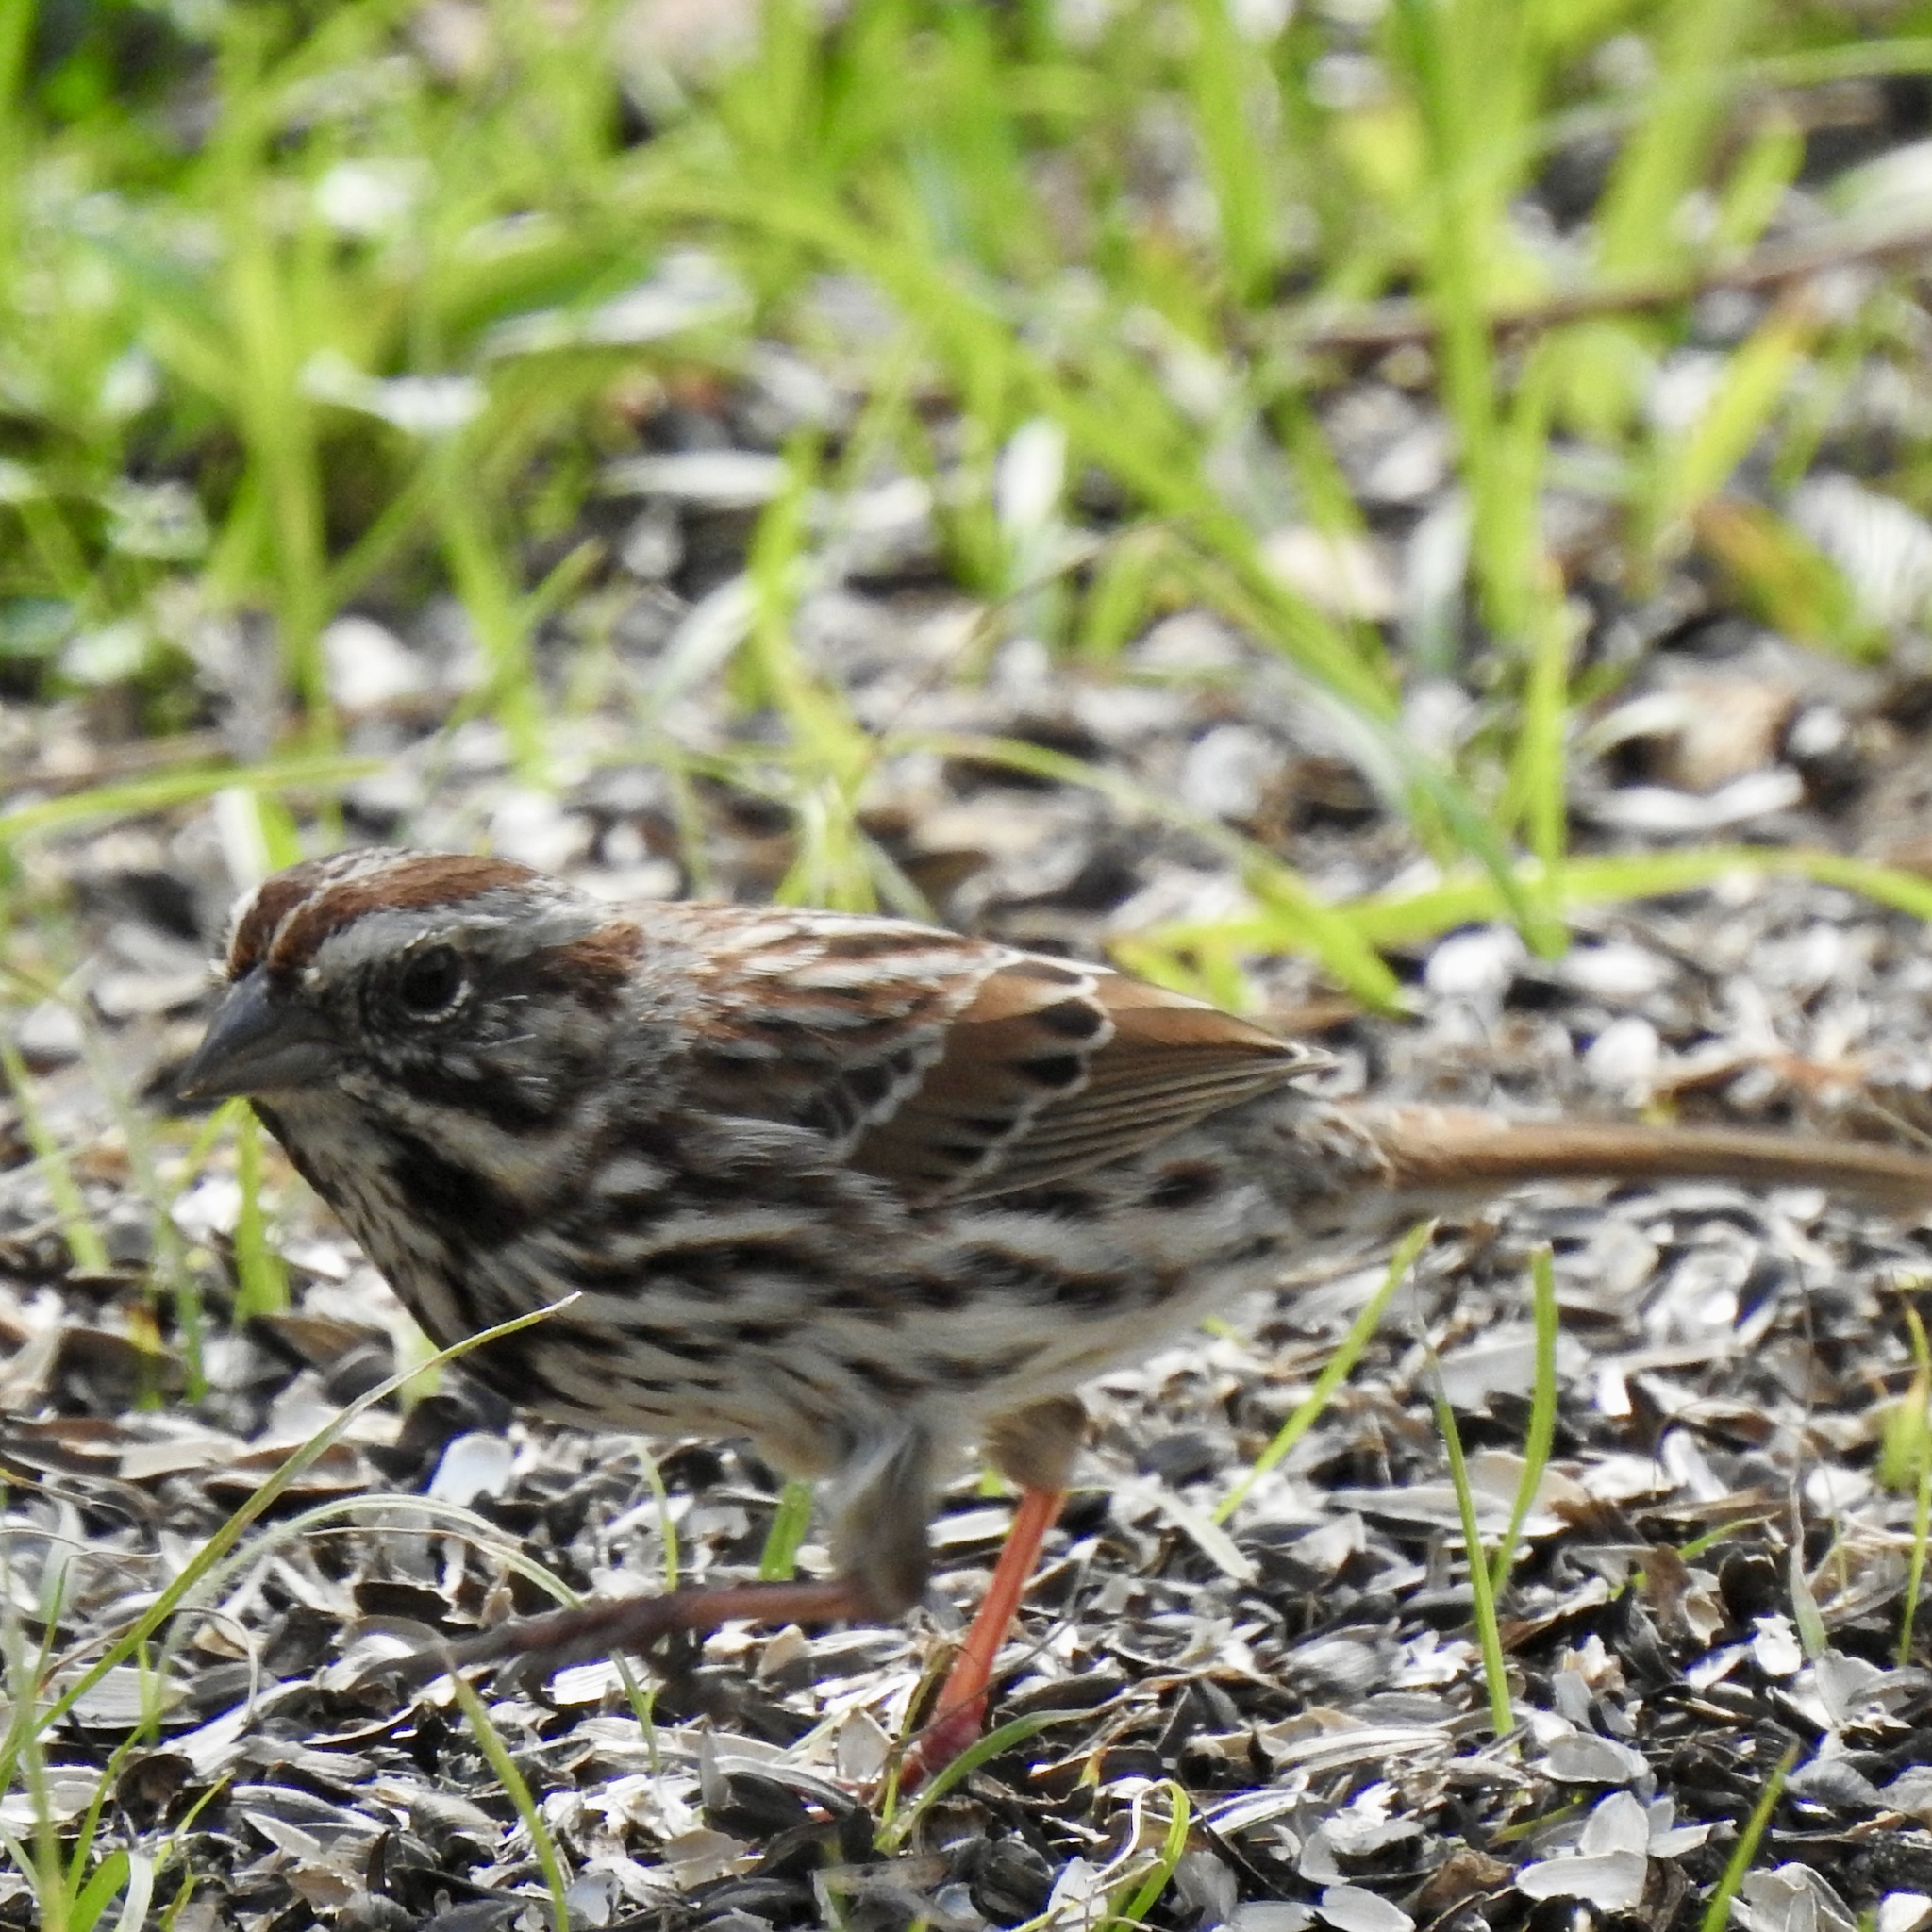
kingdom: Animalia
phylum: Chordata
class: Aves
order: Passeriformes
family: Passerellidae
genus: Melospiza
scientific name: Melospiza melodia
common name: Song sparrow
